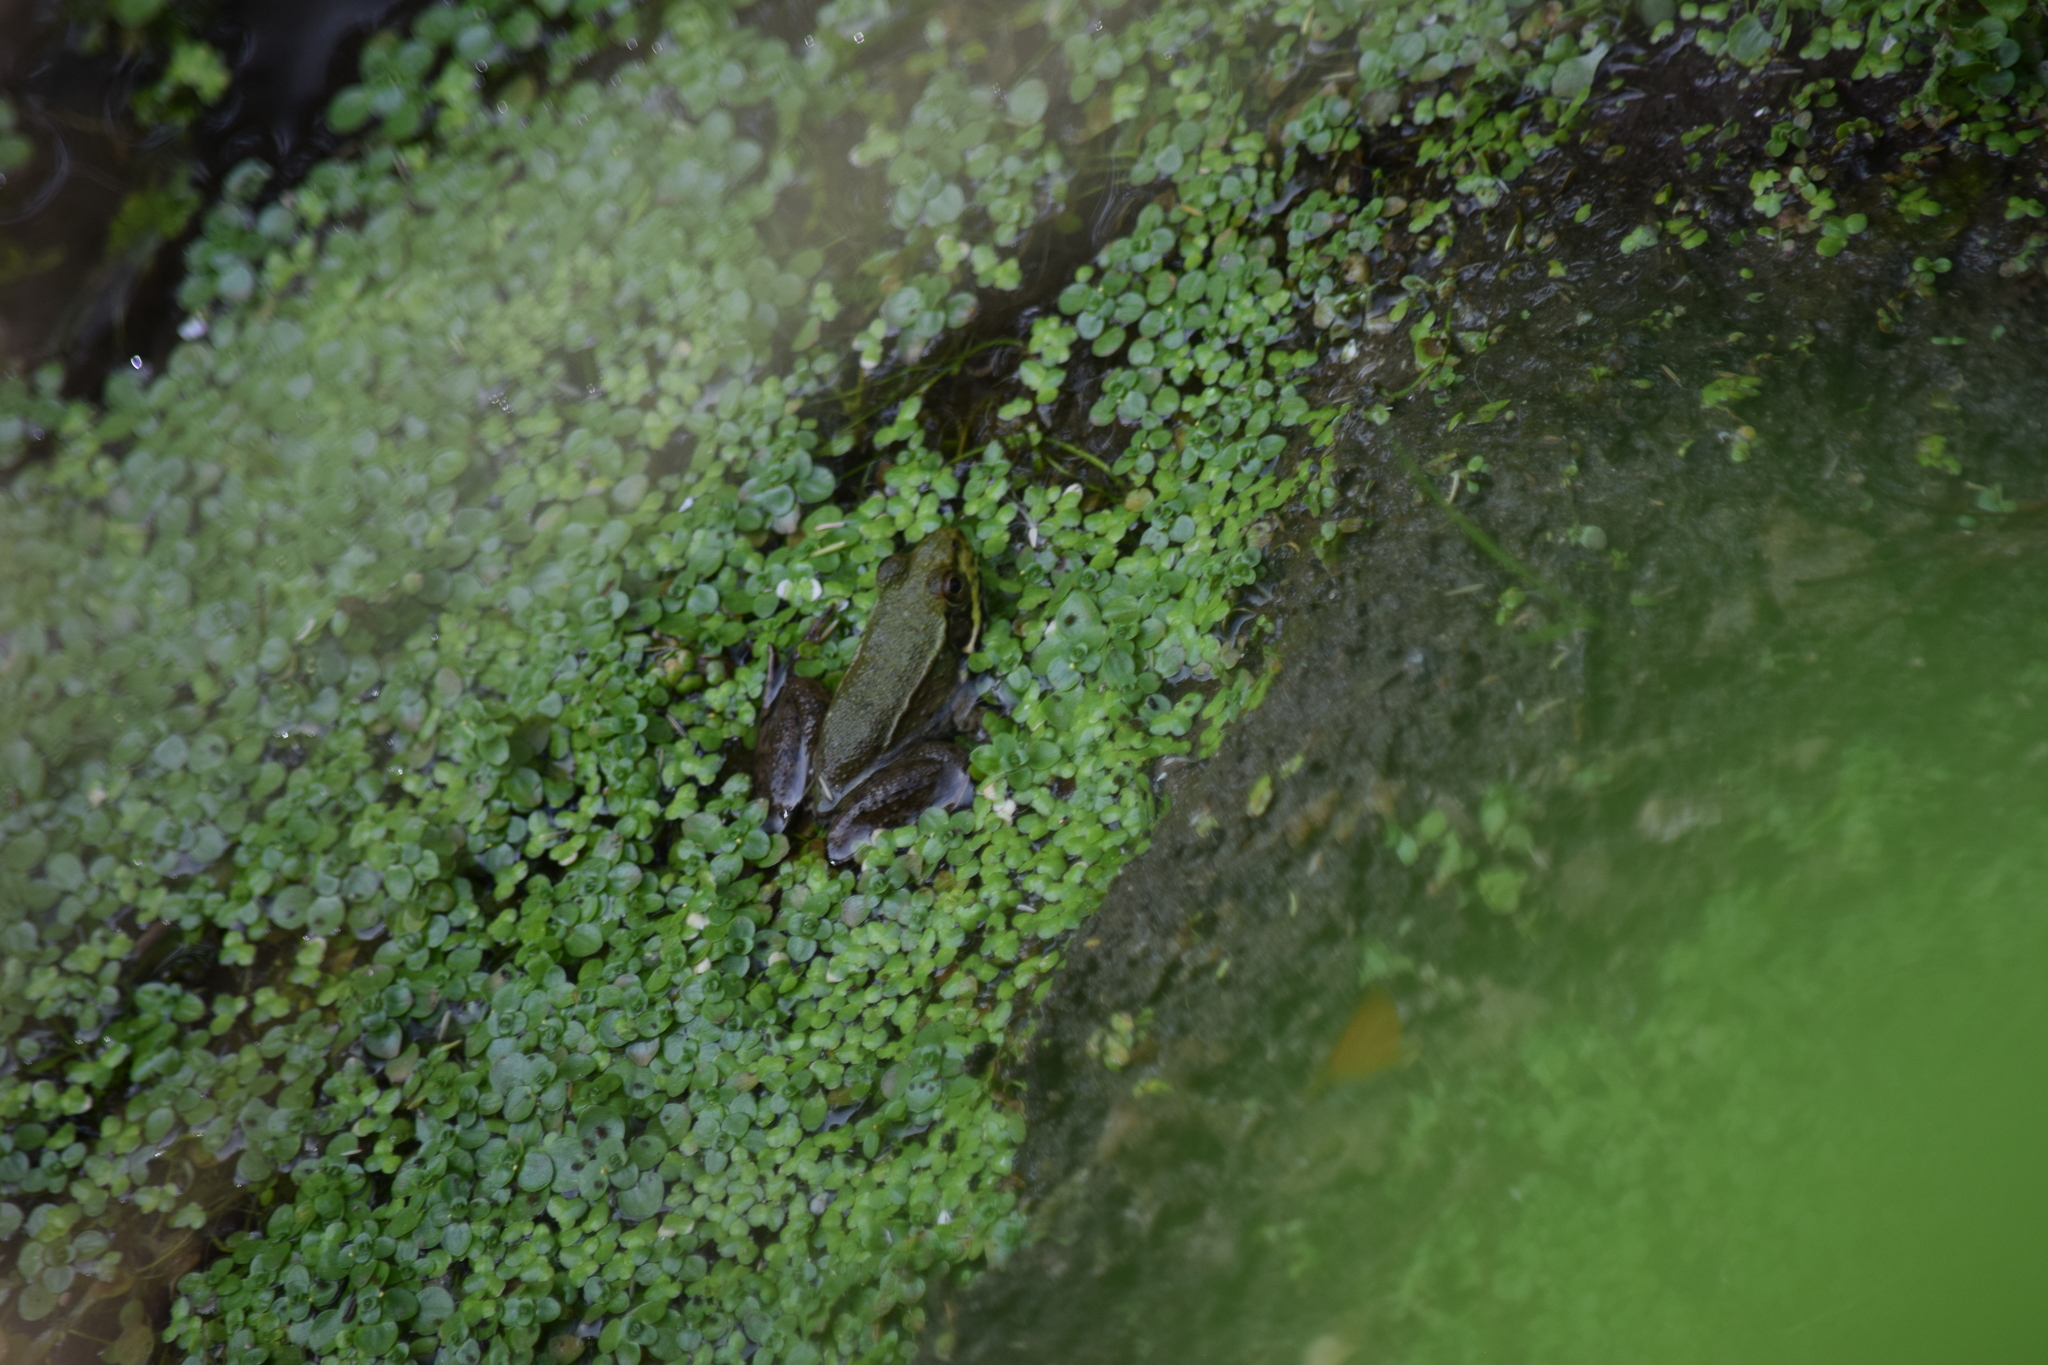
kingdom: Animalia
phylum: Chordata
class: Amphibia
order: Anura
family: Ranidae
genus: Lithobates
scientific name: Lithobates clamitans
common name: Green frog
